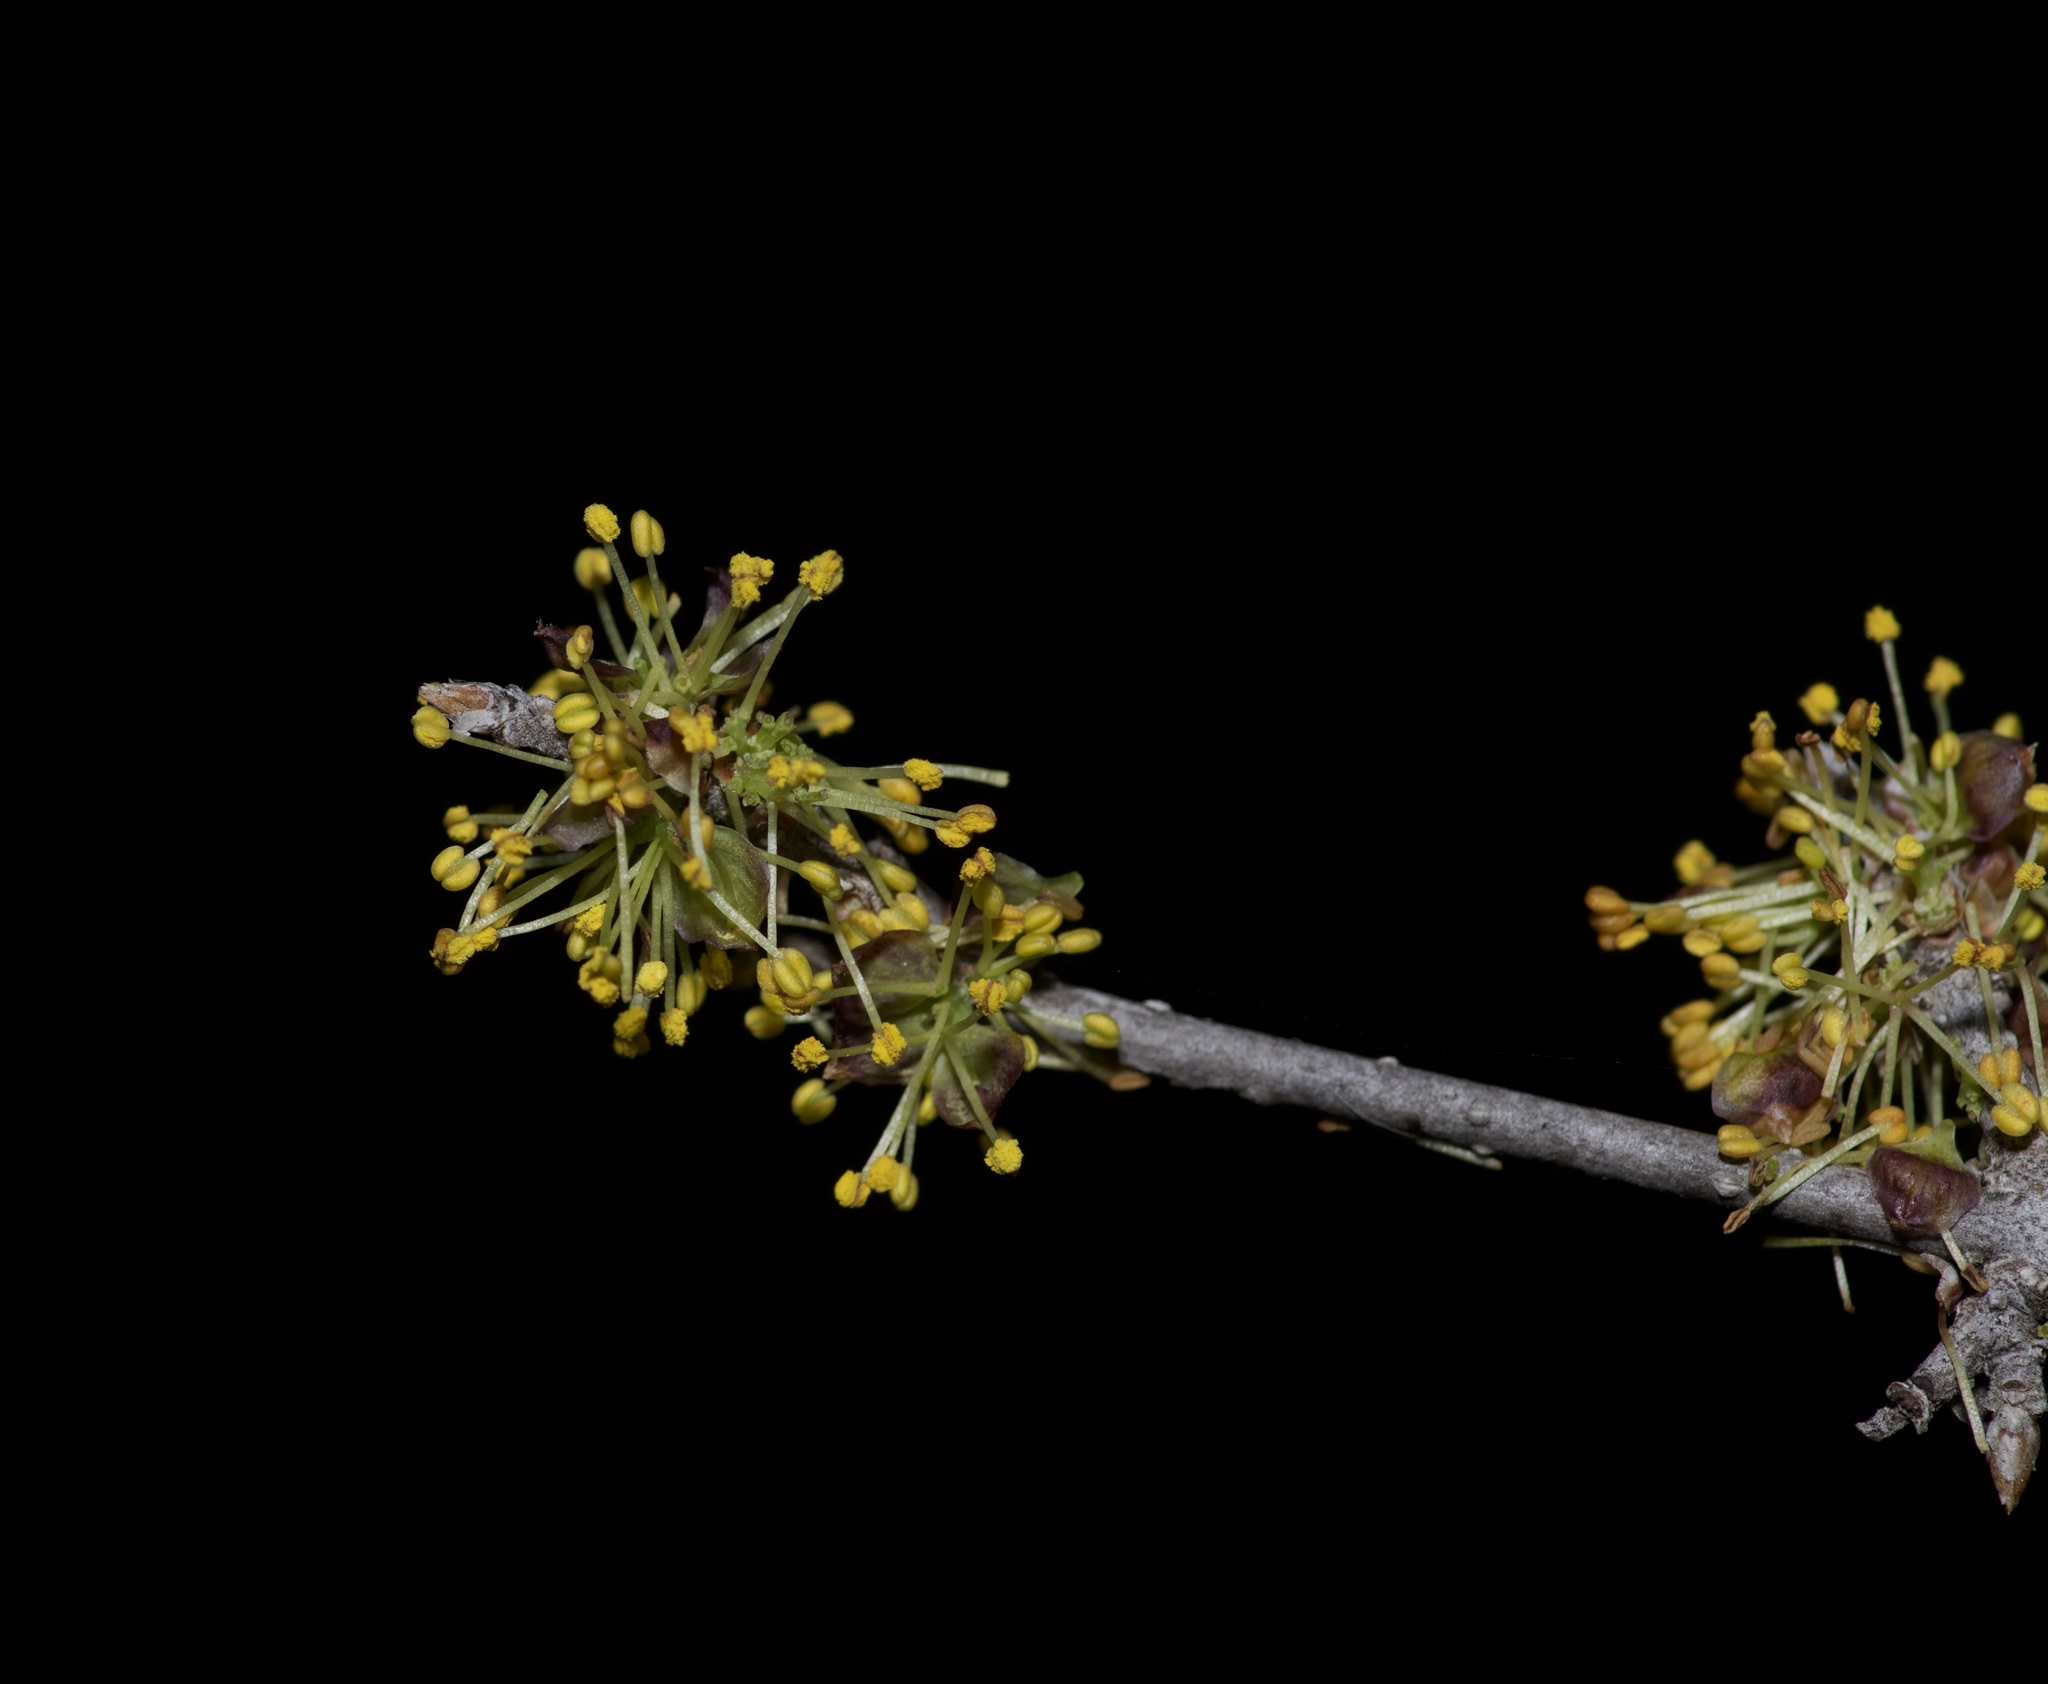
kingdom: Plantae
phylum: Tracheophyta
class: Magnoliopsida
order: Lamiales
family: Oleaceae
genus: Forestiera
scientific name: Forestiera pubescens
